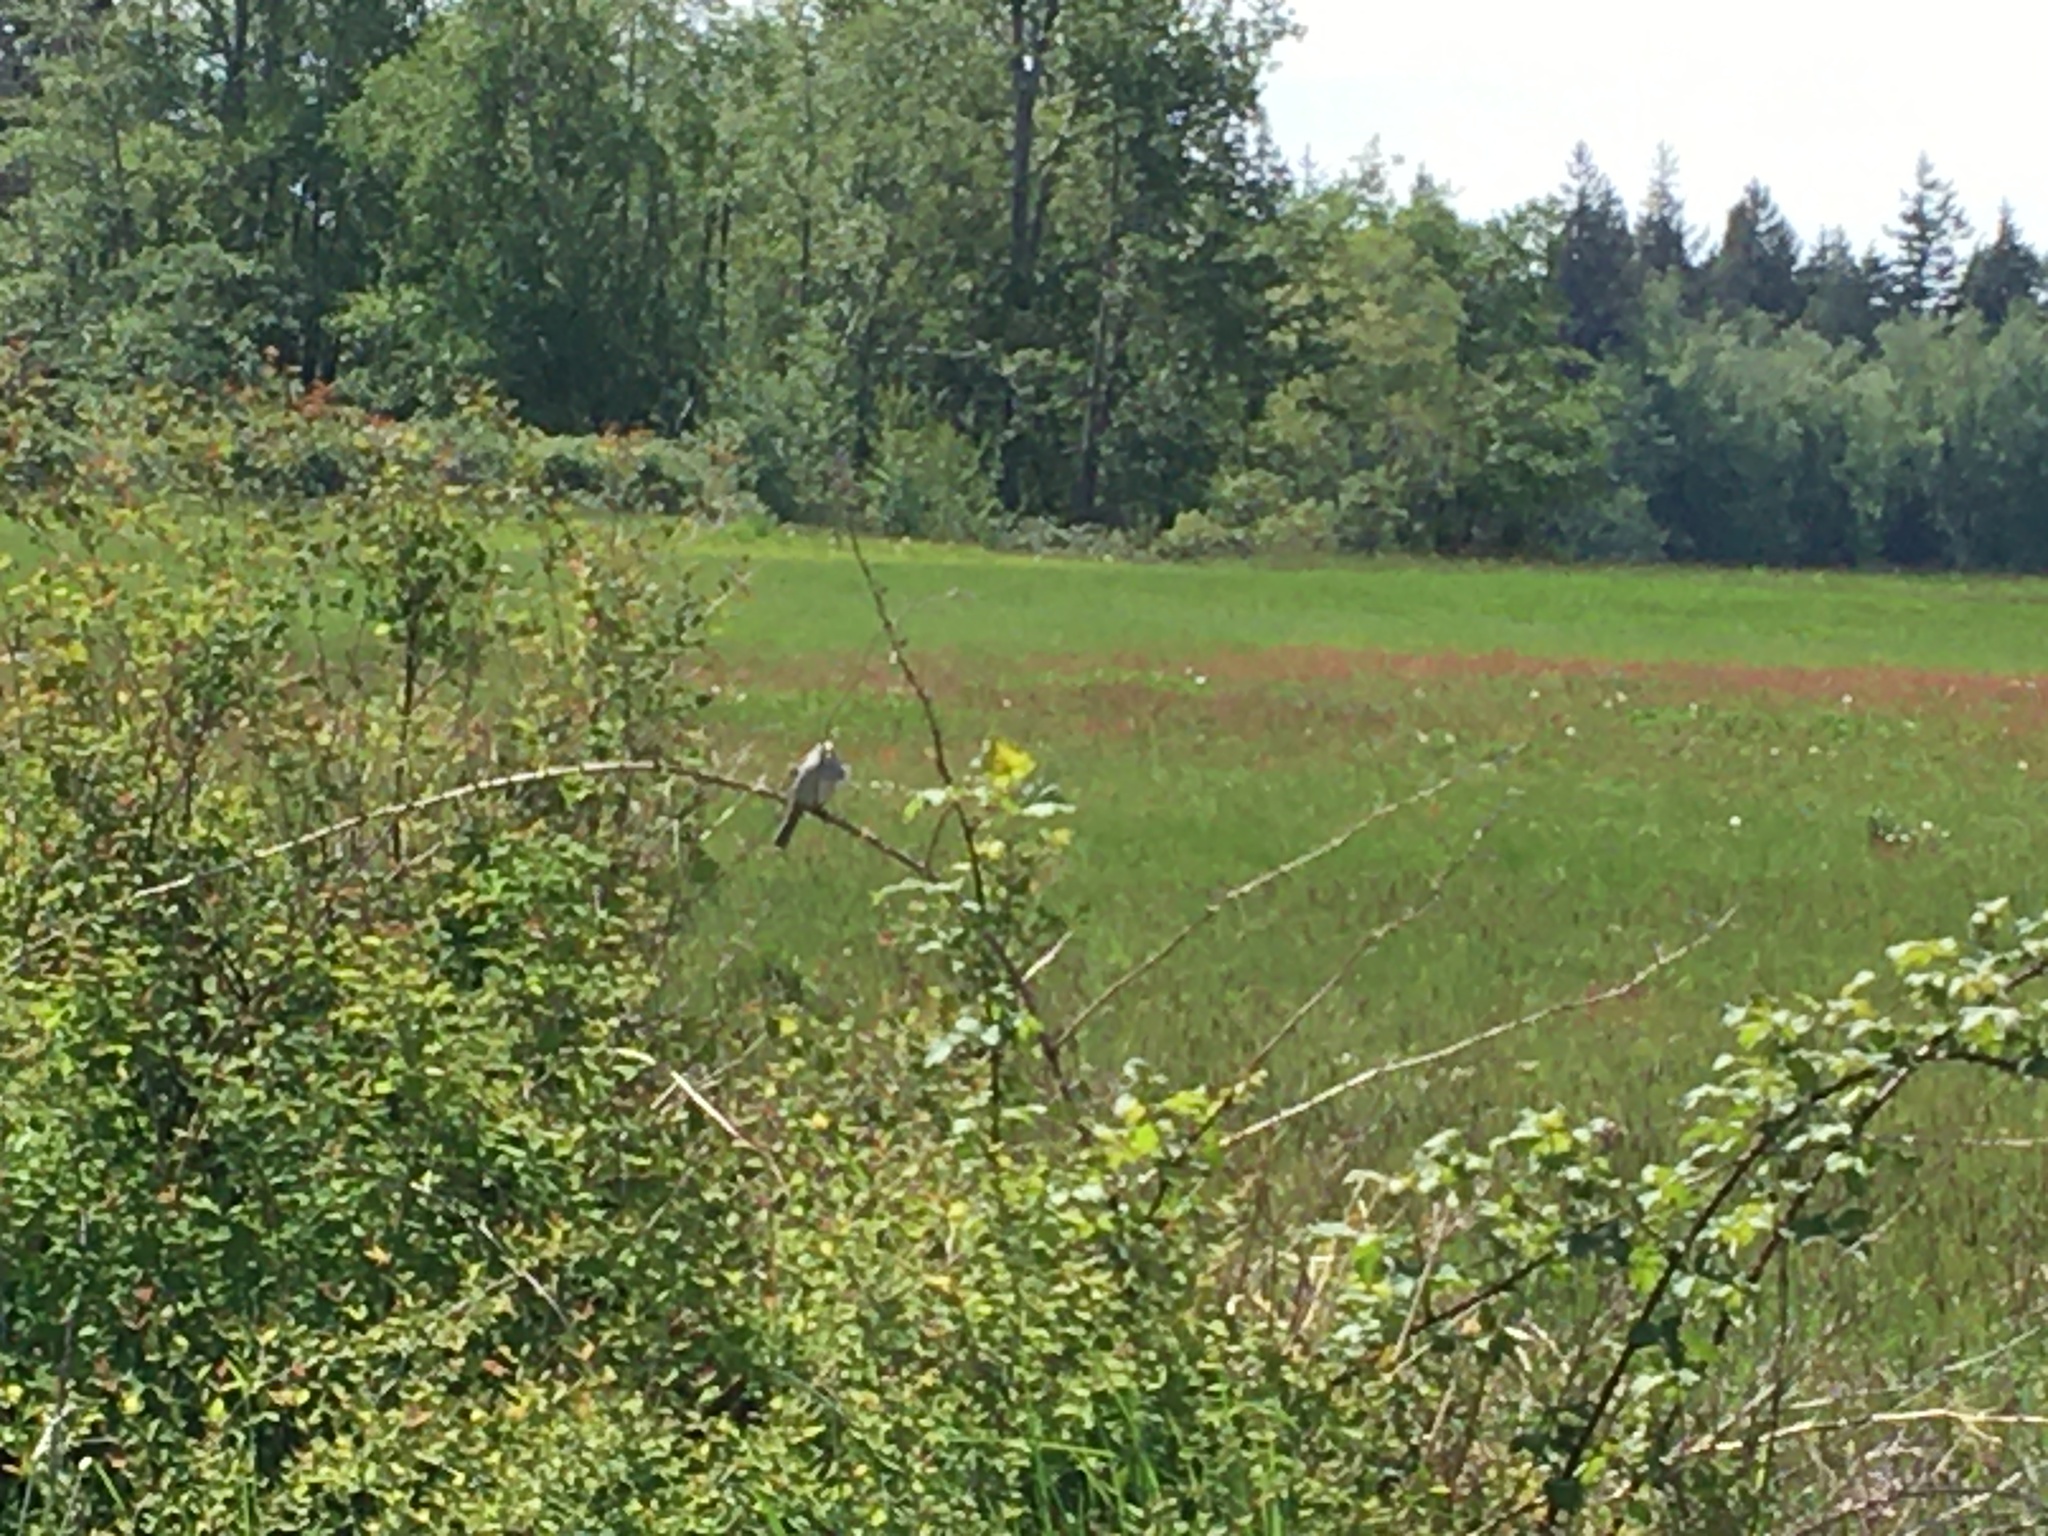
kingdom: Animalia
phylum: Chordata
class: Aves
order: Passeriformes
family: Passerellidae
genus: Zonotrichia
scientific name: Zonotrichia leucophrys
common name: White-crowned sparrow
